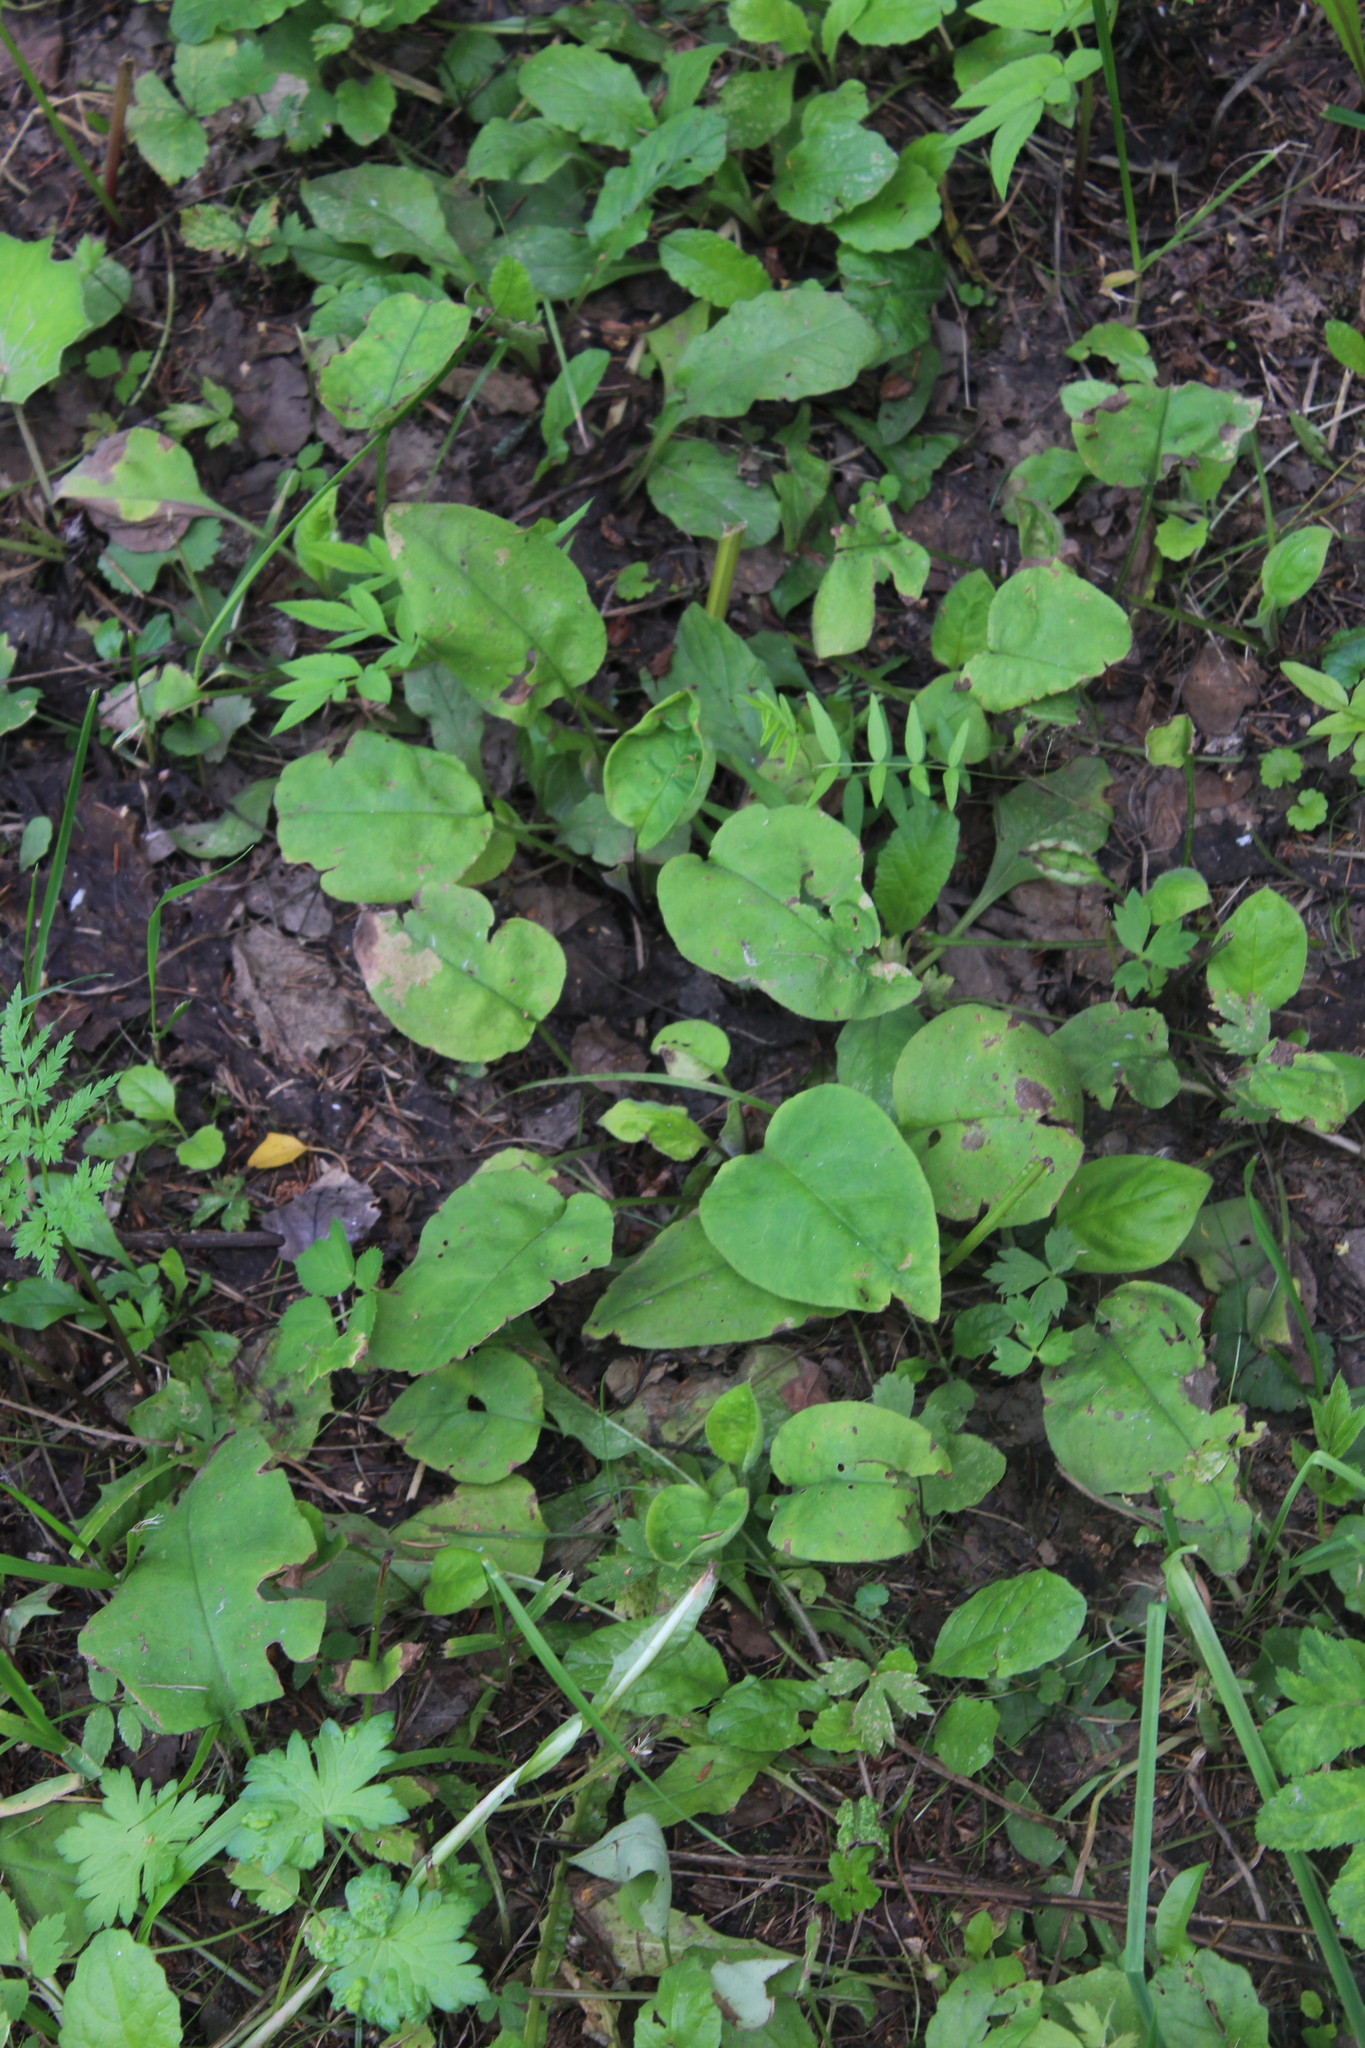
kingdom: Plantae
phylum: Tracheophyta
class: Magnoliopsida
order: Boraginales
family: Boraginaceae
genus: Pulmonaria
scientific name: Pulmonaria obscura
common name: Suffolk lungwort
